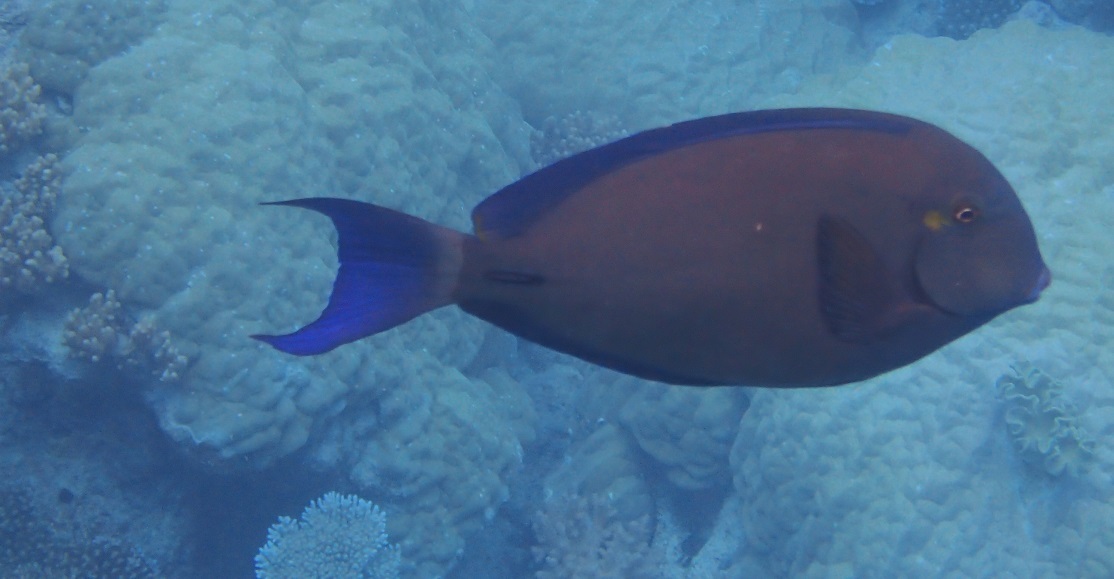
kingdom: Animalia
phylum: Chordata
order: Perciformes
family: Acanthuridae
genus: Acanthurus
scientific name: Acanthurus blochii
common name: Blue-banded pualu
